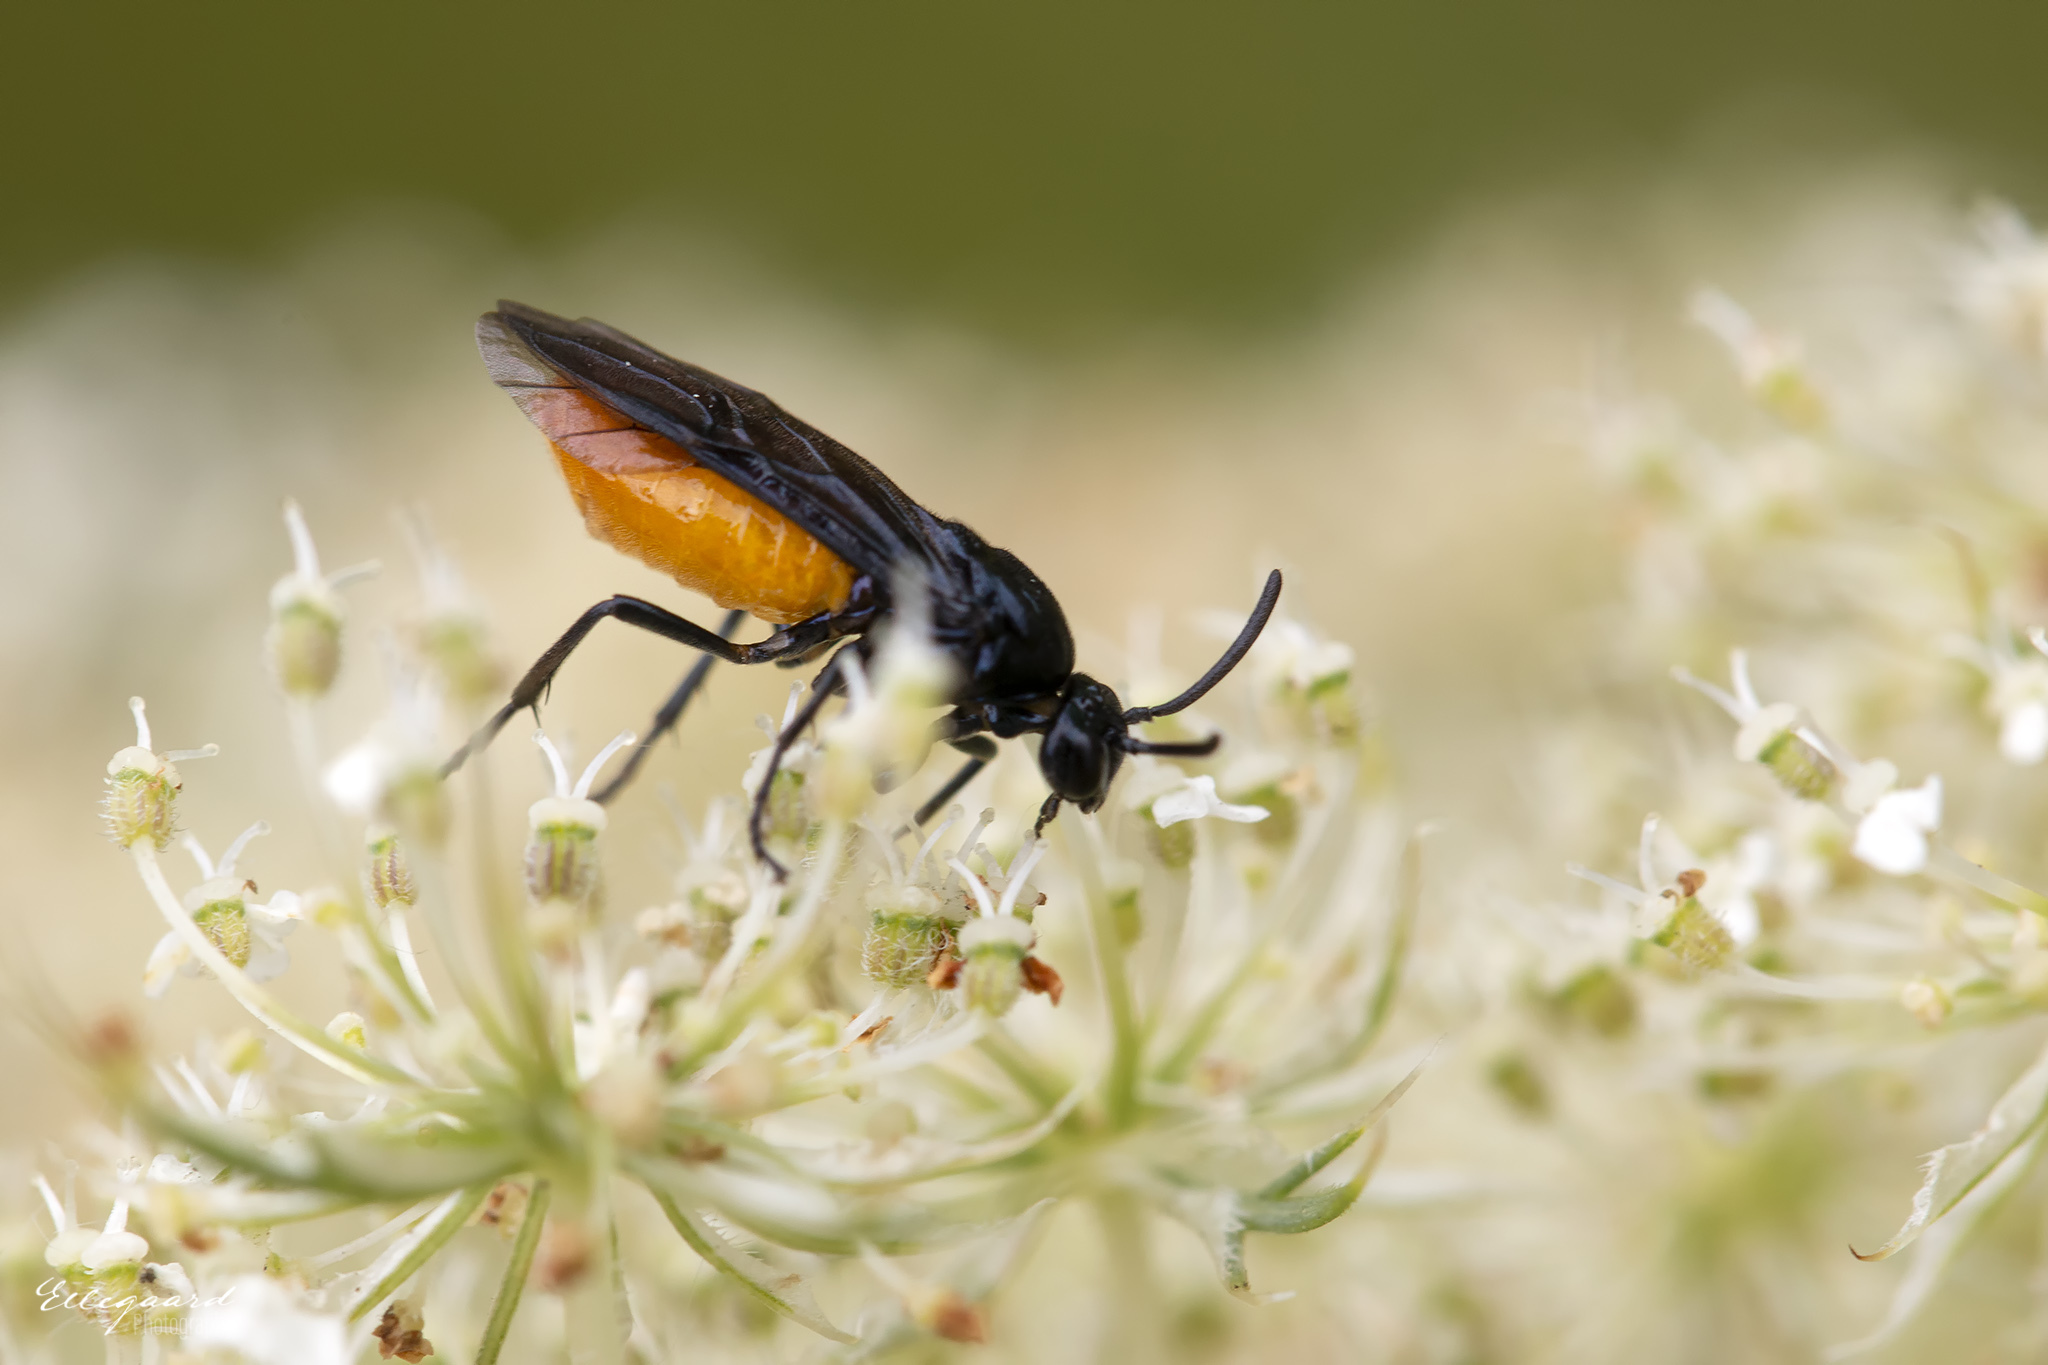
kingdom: Animalia
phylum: Arthropoda
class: Insecta
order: Hymenoptera
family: Argidae
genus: Arge
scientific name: Arge pagana
